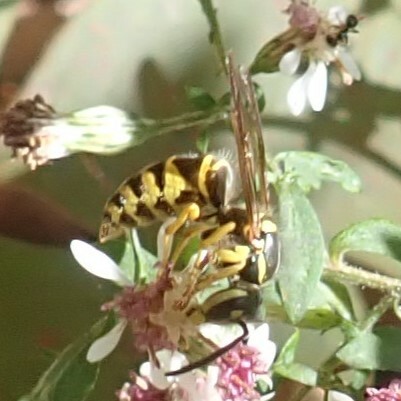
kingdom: Animalia
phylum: Arthropoda
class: Insecta
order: Hymenoptera
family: Vespidae
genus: Vespula
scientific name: Vespula maculifrons
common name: Eastern yellowjacket
